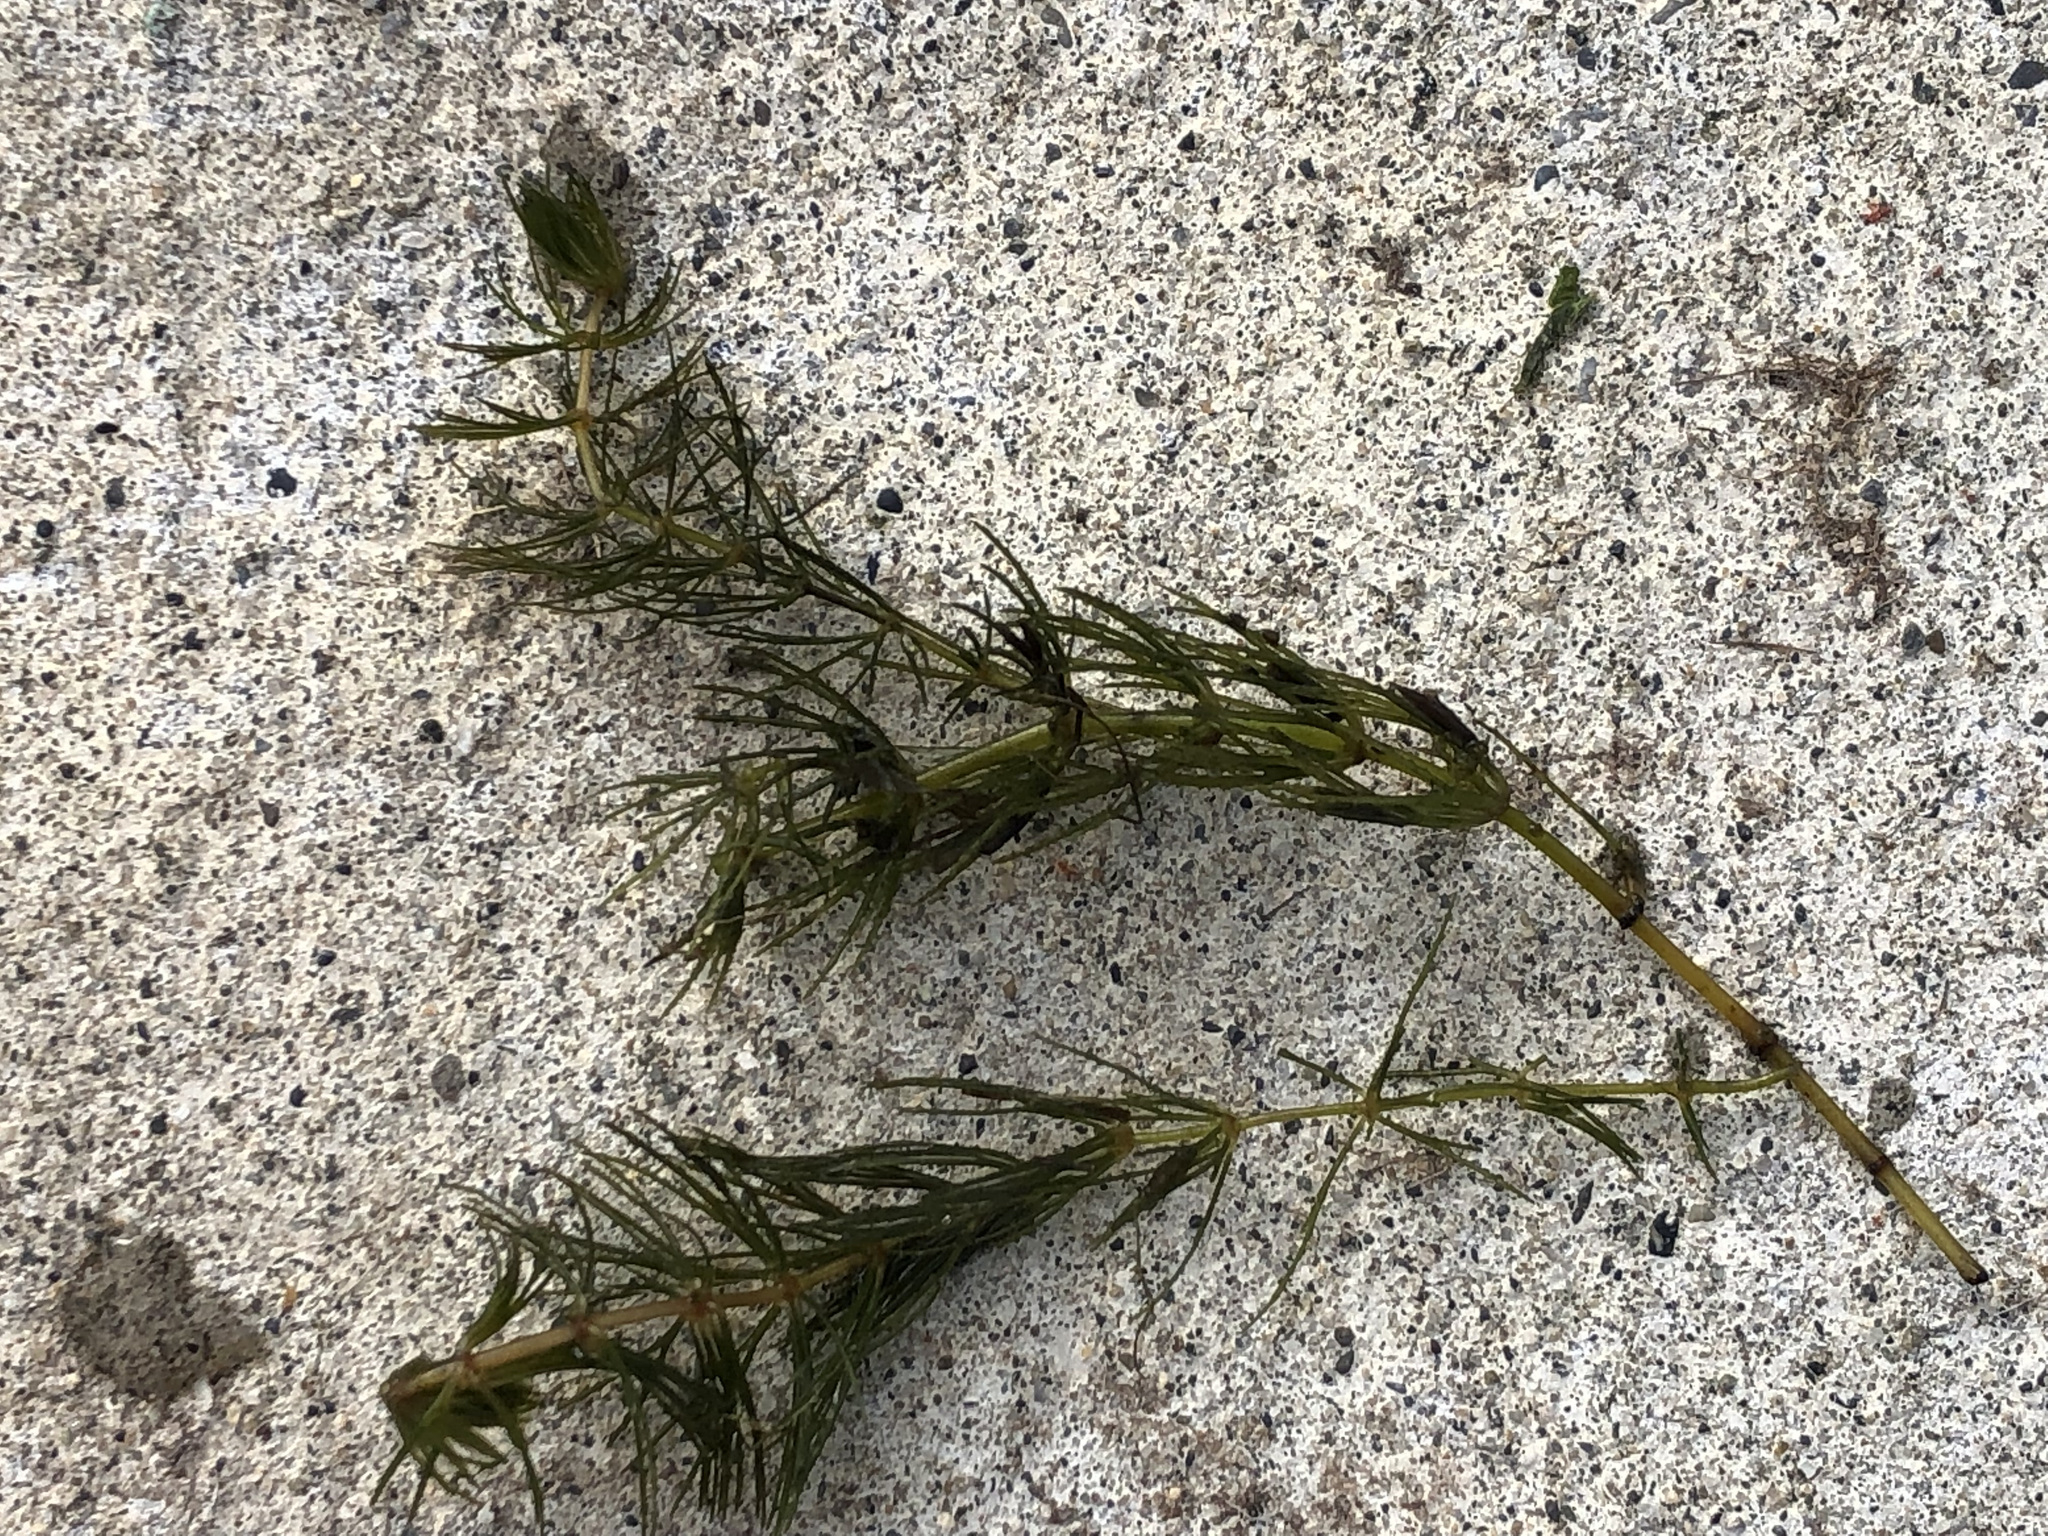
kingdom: Plantae
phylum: Tracheophyta
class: Magnoliopsida
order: Ceratophyllales
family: Ceratophyllaceae
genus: Ceratophyllum
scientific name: Ceratophyllum demersum
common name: Rigid hornwort
